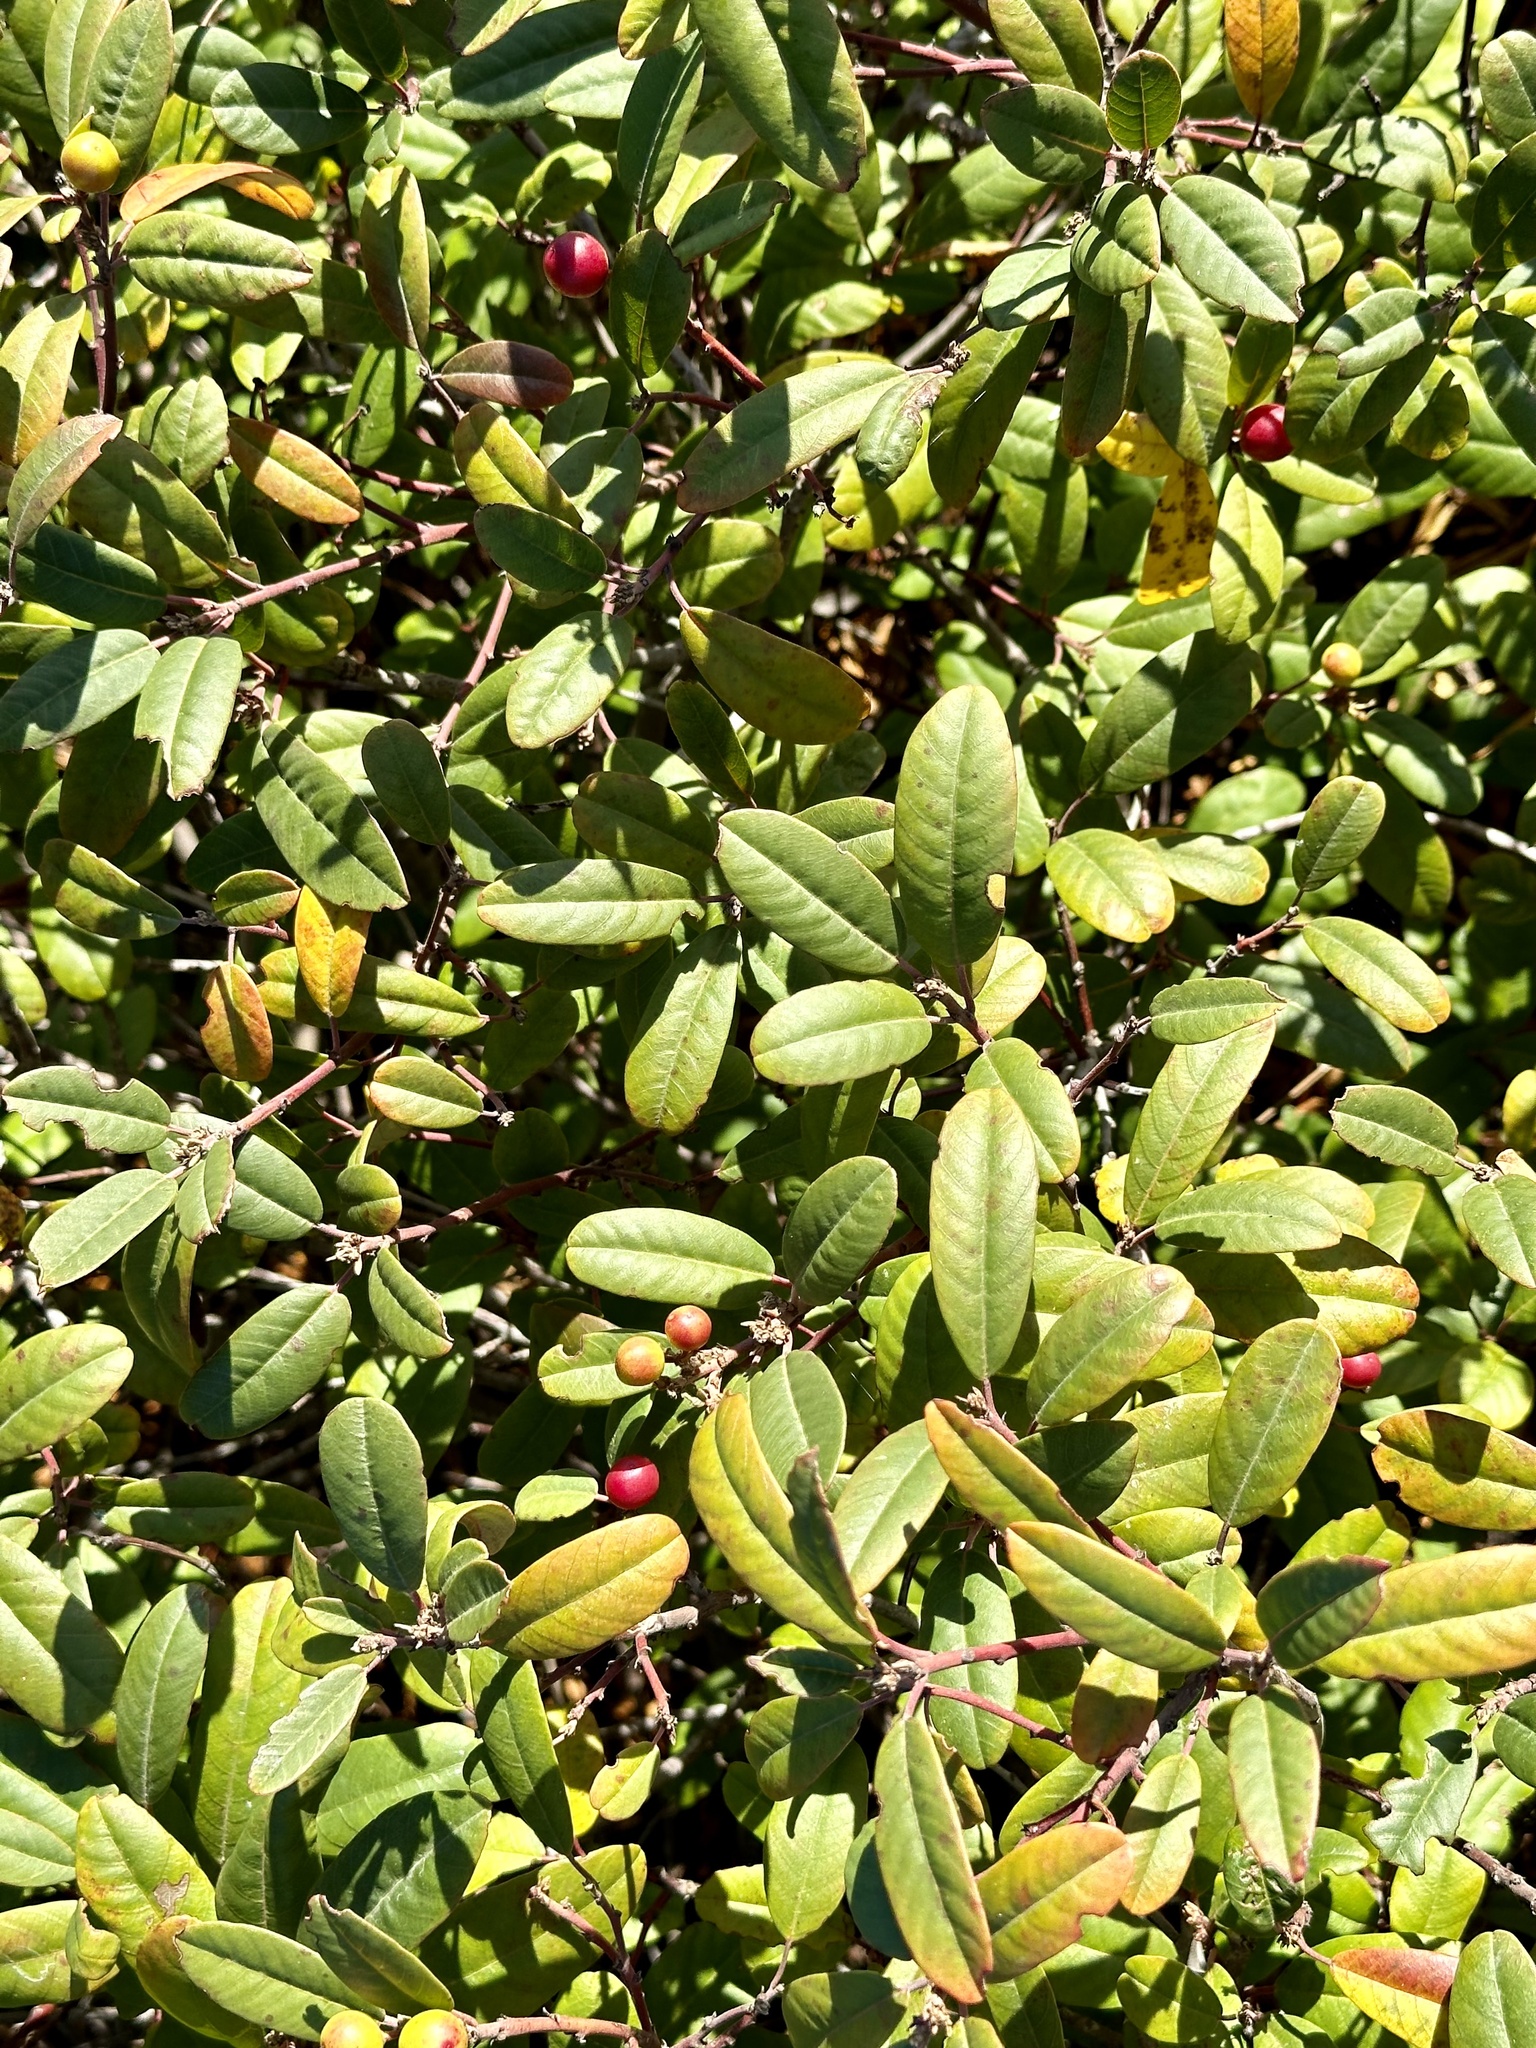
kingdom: Plantae
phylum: Tracheophyta
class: Magnoliopsida
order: Rosales
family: Rhamnaceae
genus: Frangula
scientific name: Frangula californica
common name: California buckthorn
